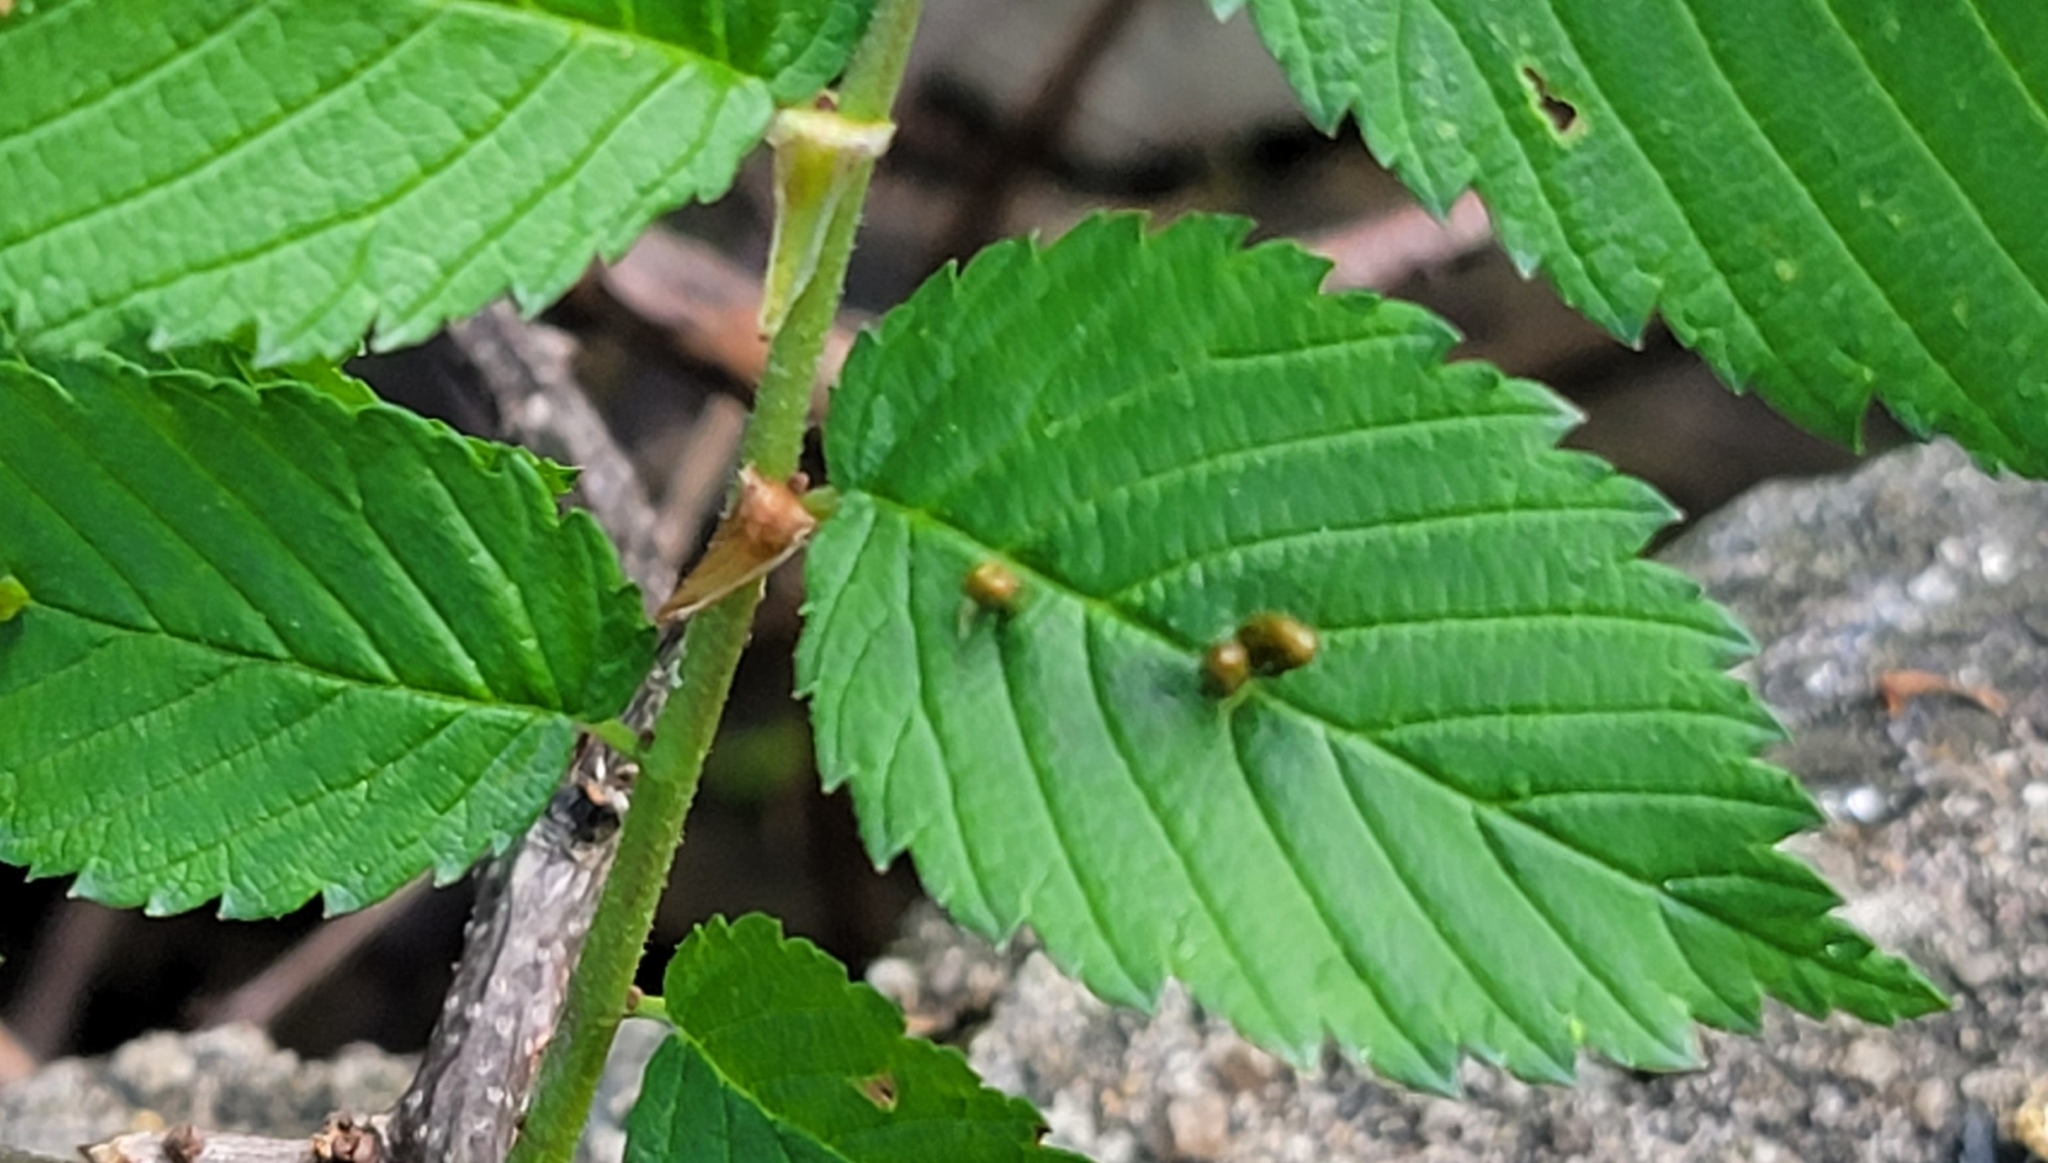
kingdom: Animalia
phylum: Arthropoda
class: Arachnida
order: Trombidiformes
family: Eriophyidae
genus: Aceria
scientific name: Aceria
